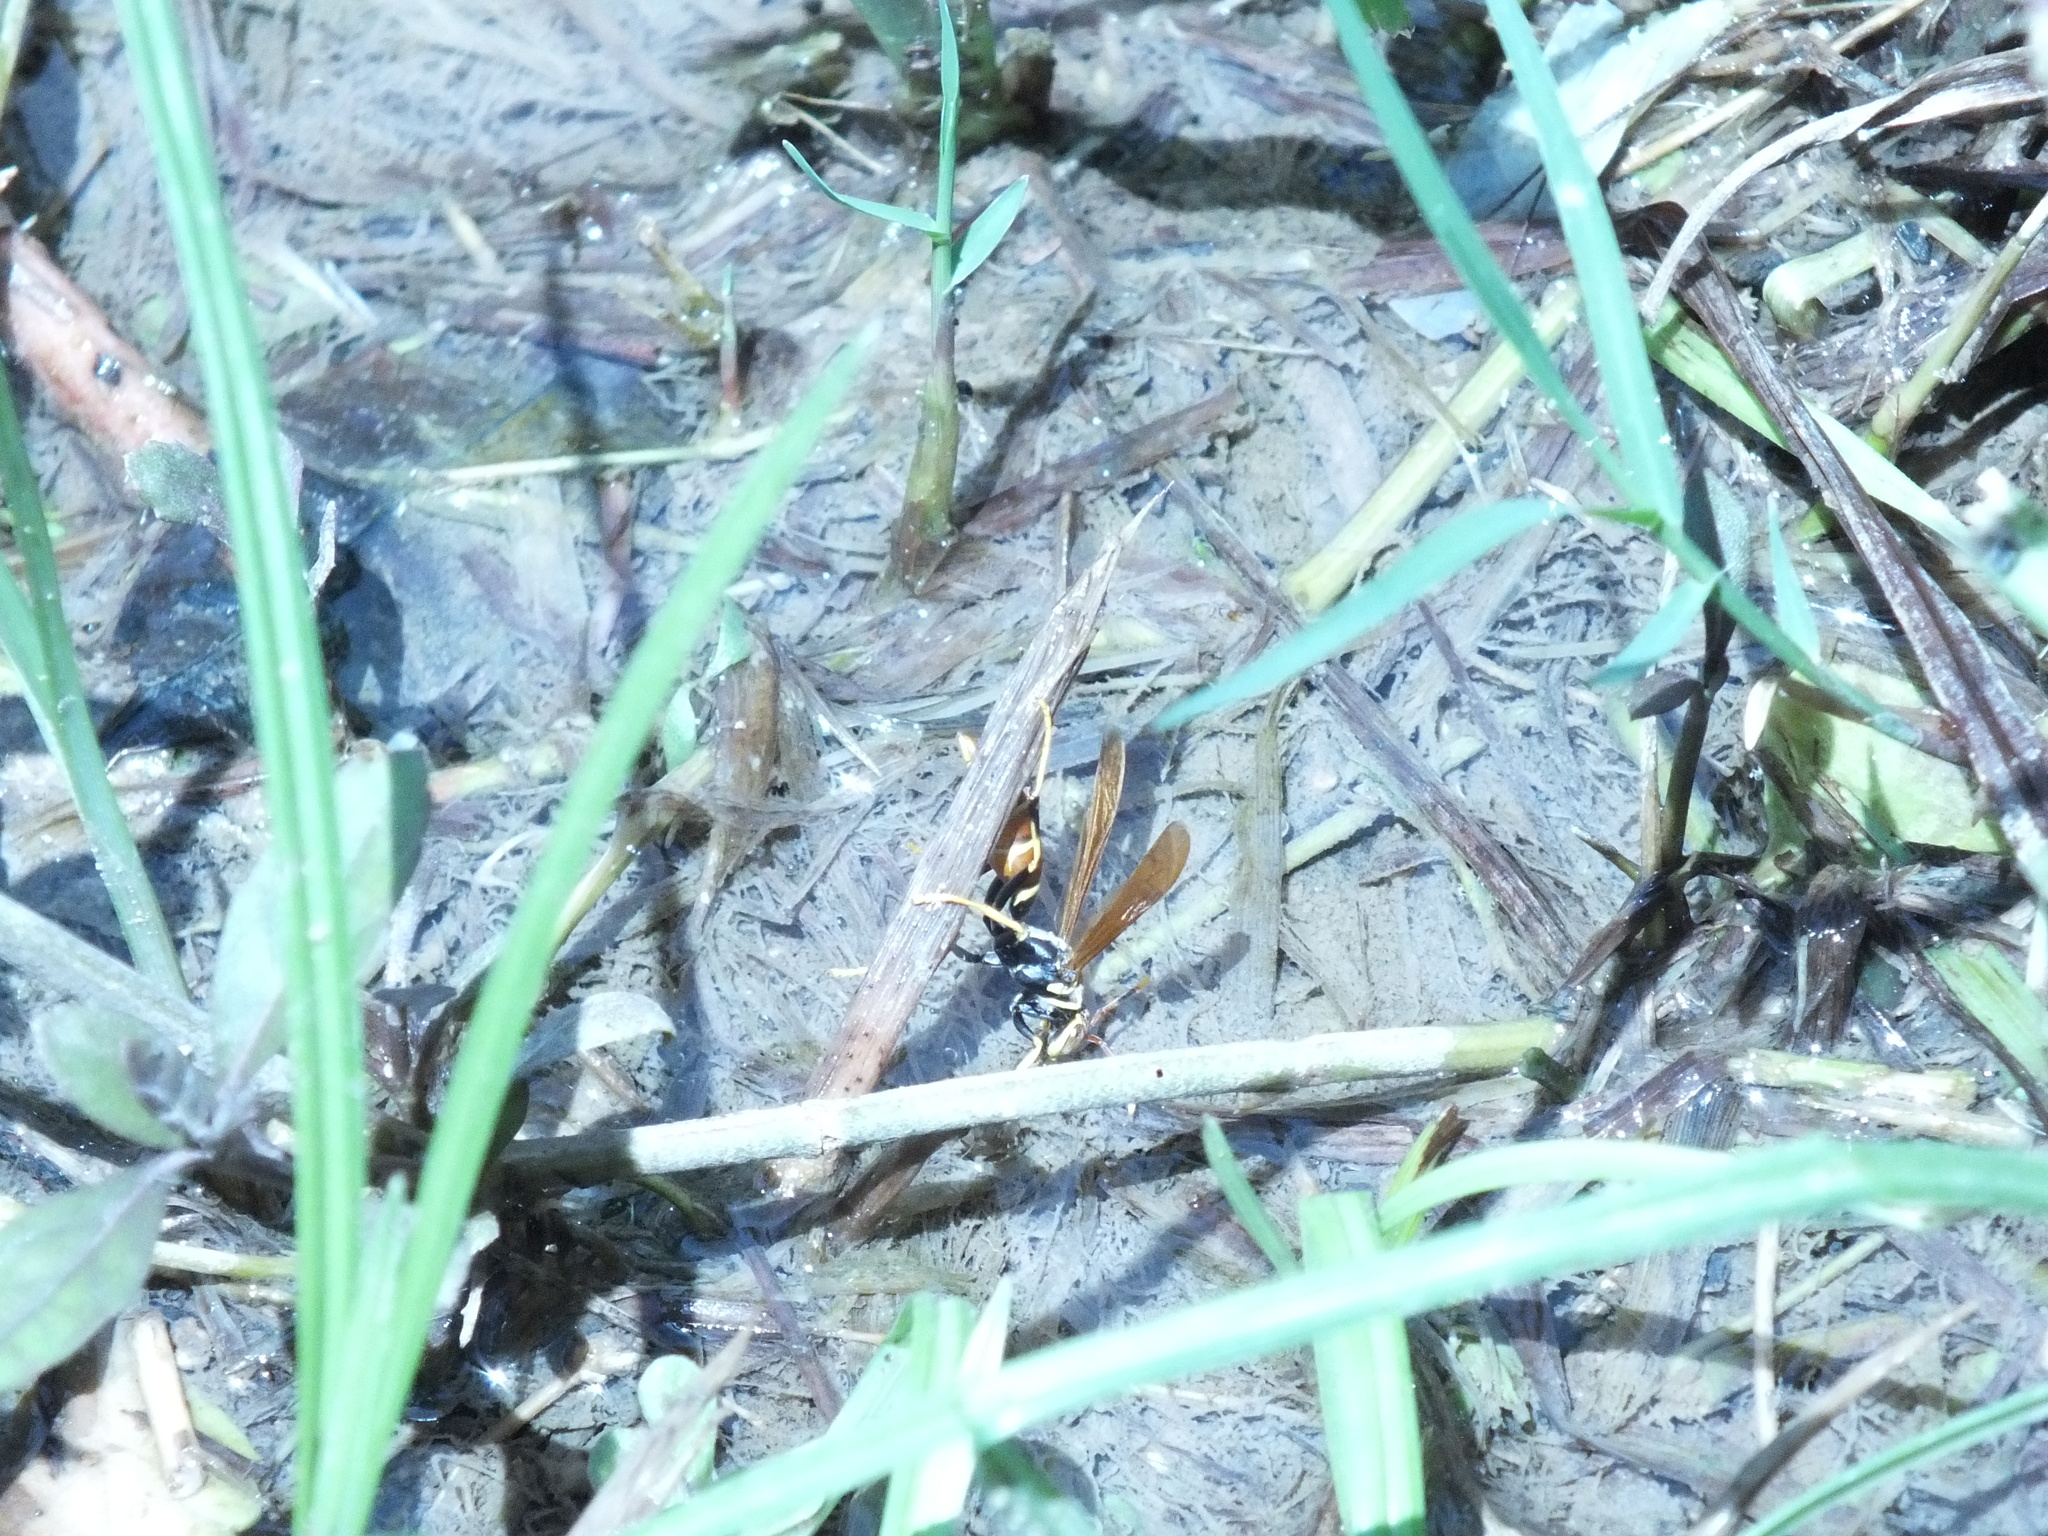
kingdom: Animalia
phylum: Arthropoda
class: Insecta
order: Hymenoptera
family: Eumenidae
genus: Polistes
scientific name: Polistes crinitus
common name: Jack spaniard
